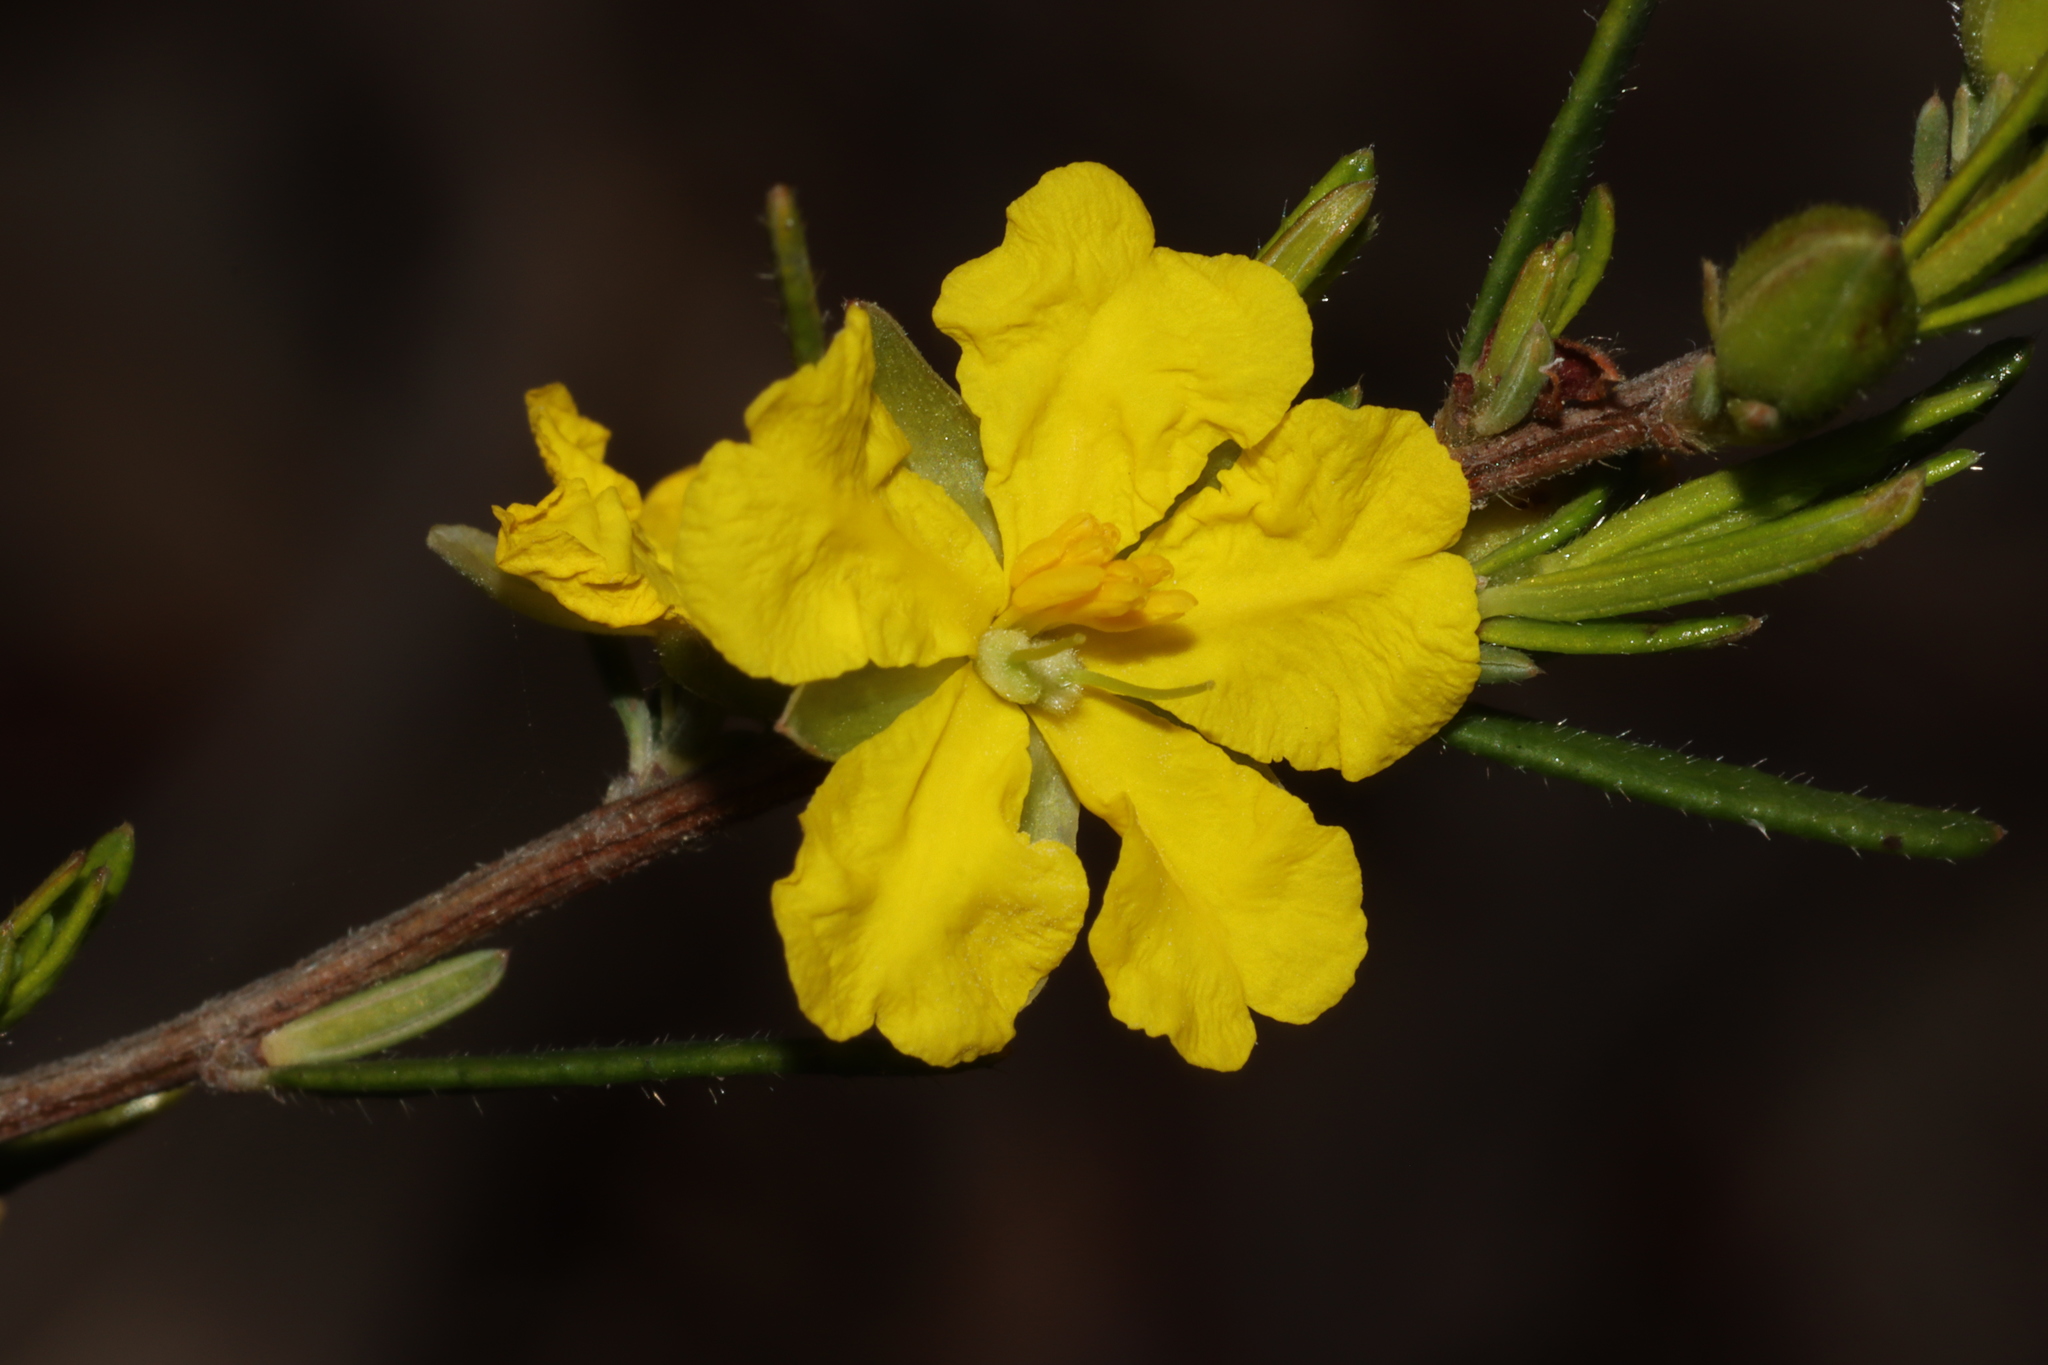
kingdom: Plantae
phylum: Tracheophyta
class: Magnoliopsida
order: Dilleniales
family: Dilleniaceae
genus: Hibbertia
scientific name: Hibbertia riparia
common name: Erect guinea-flower
